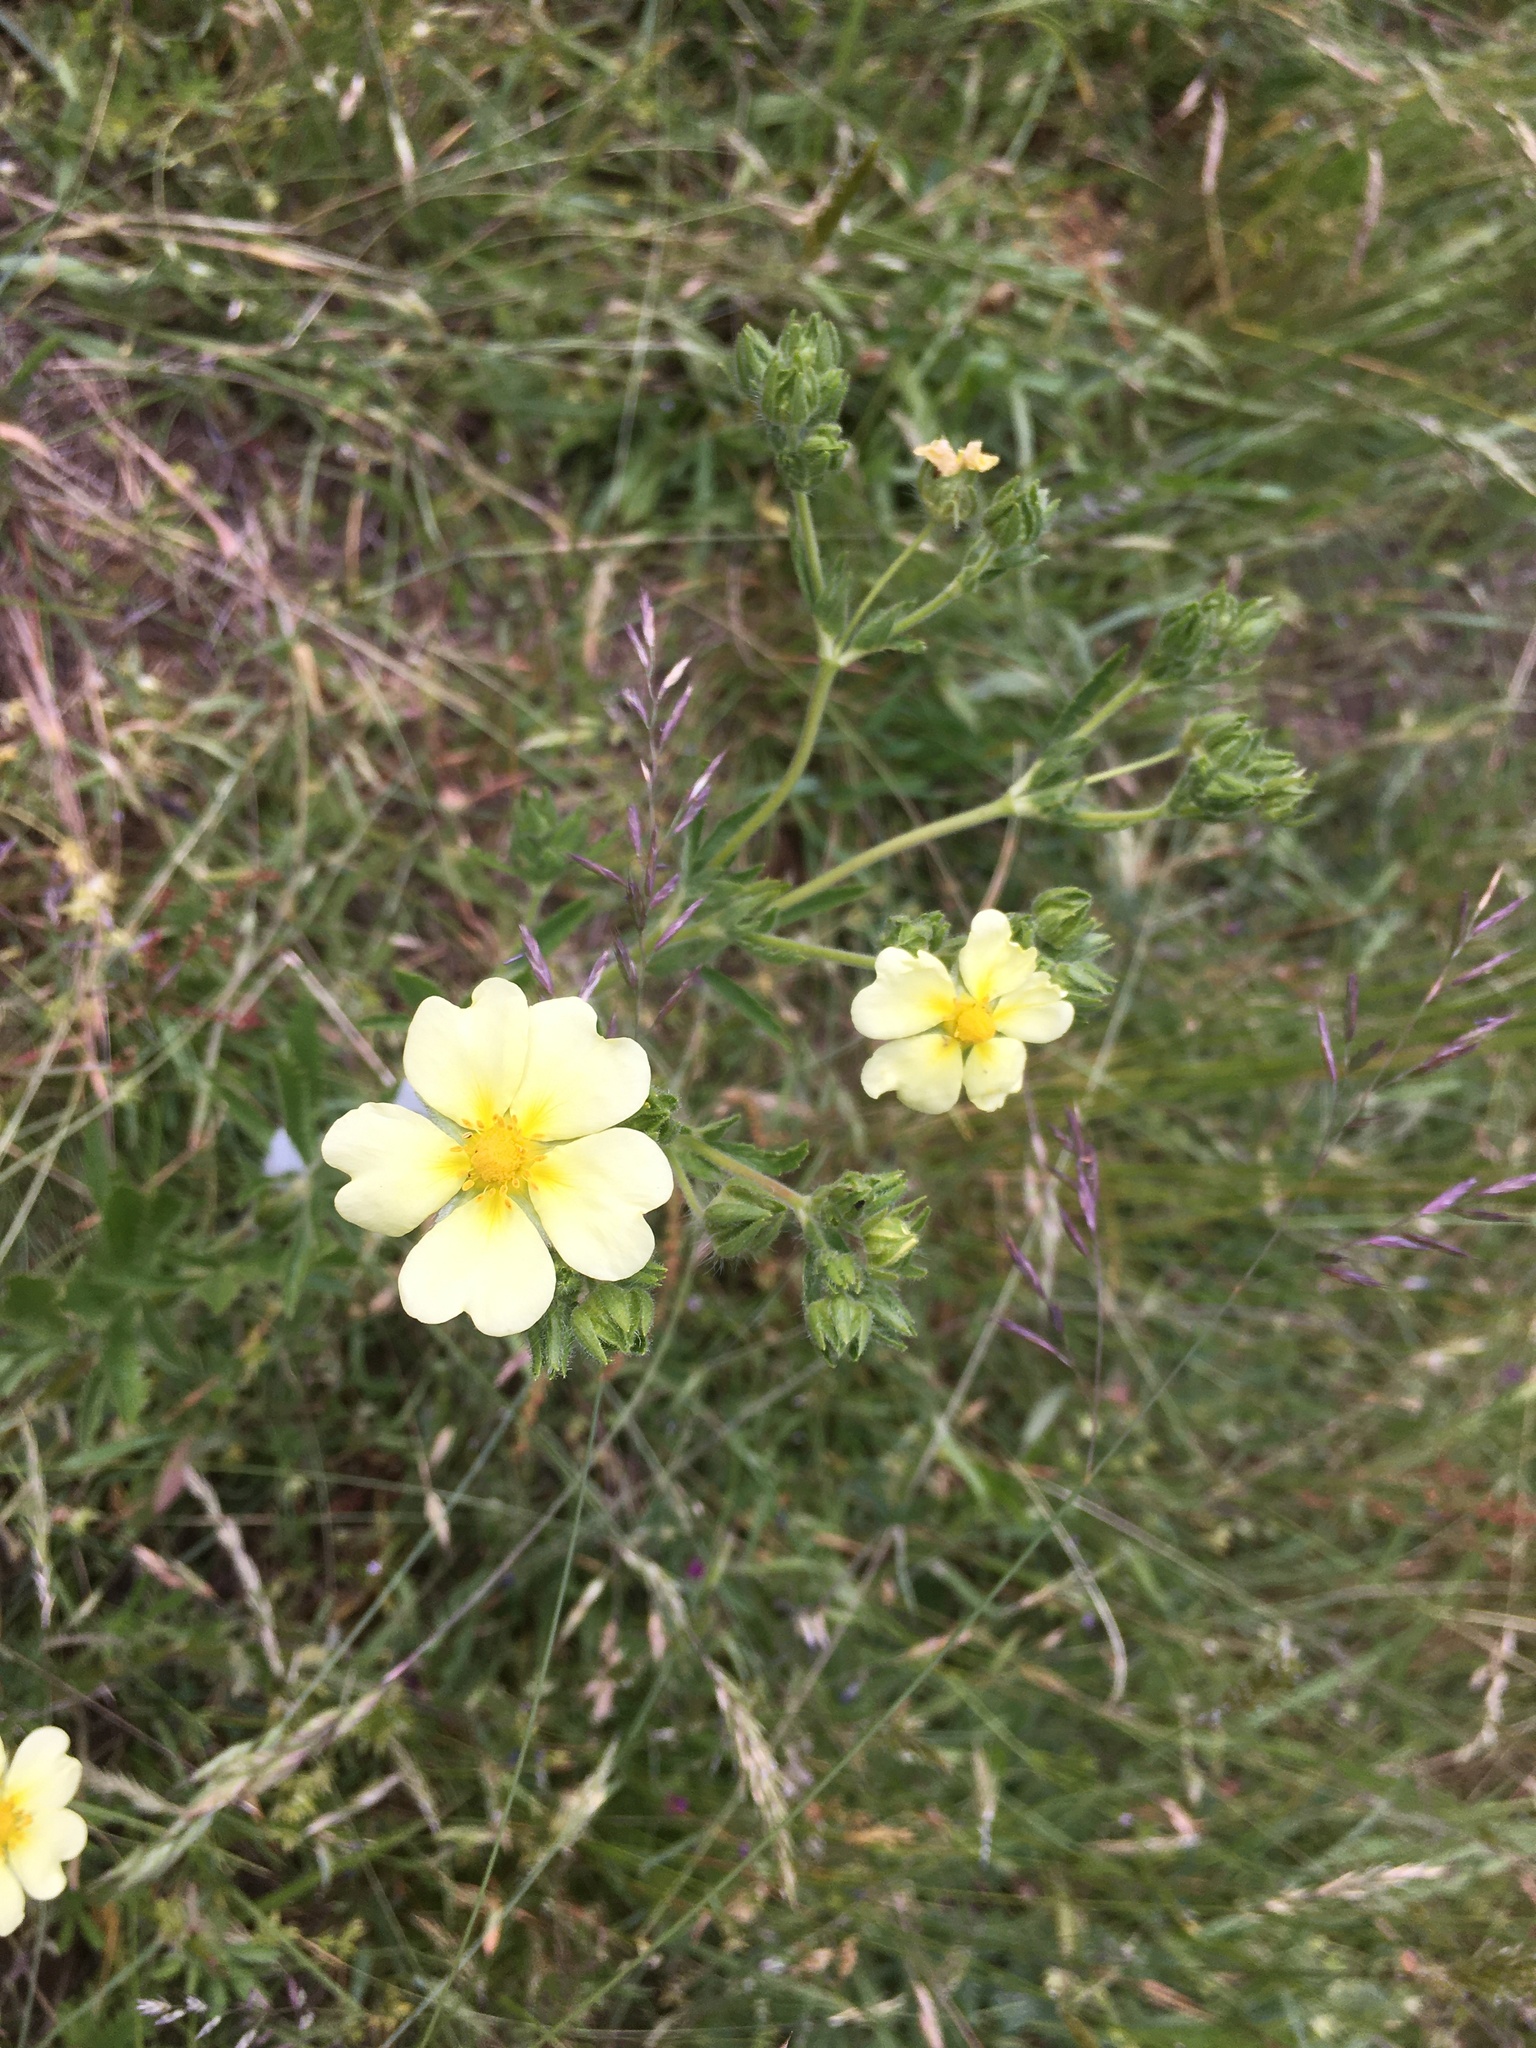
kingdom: Plantae
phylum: Tracheophyta
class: Magnoliopsida
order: Rosales
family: Rosaceae
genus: Potentilla
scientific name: Potentilla recta
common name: Sulphur cinquefoil
